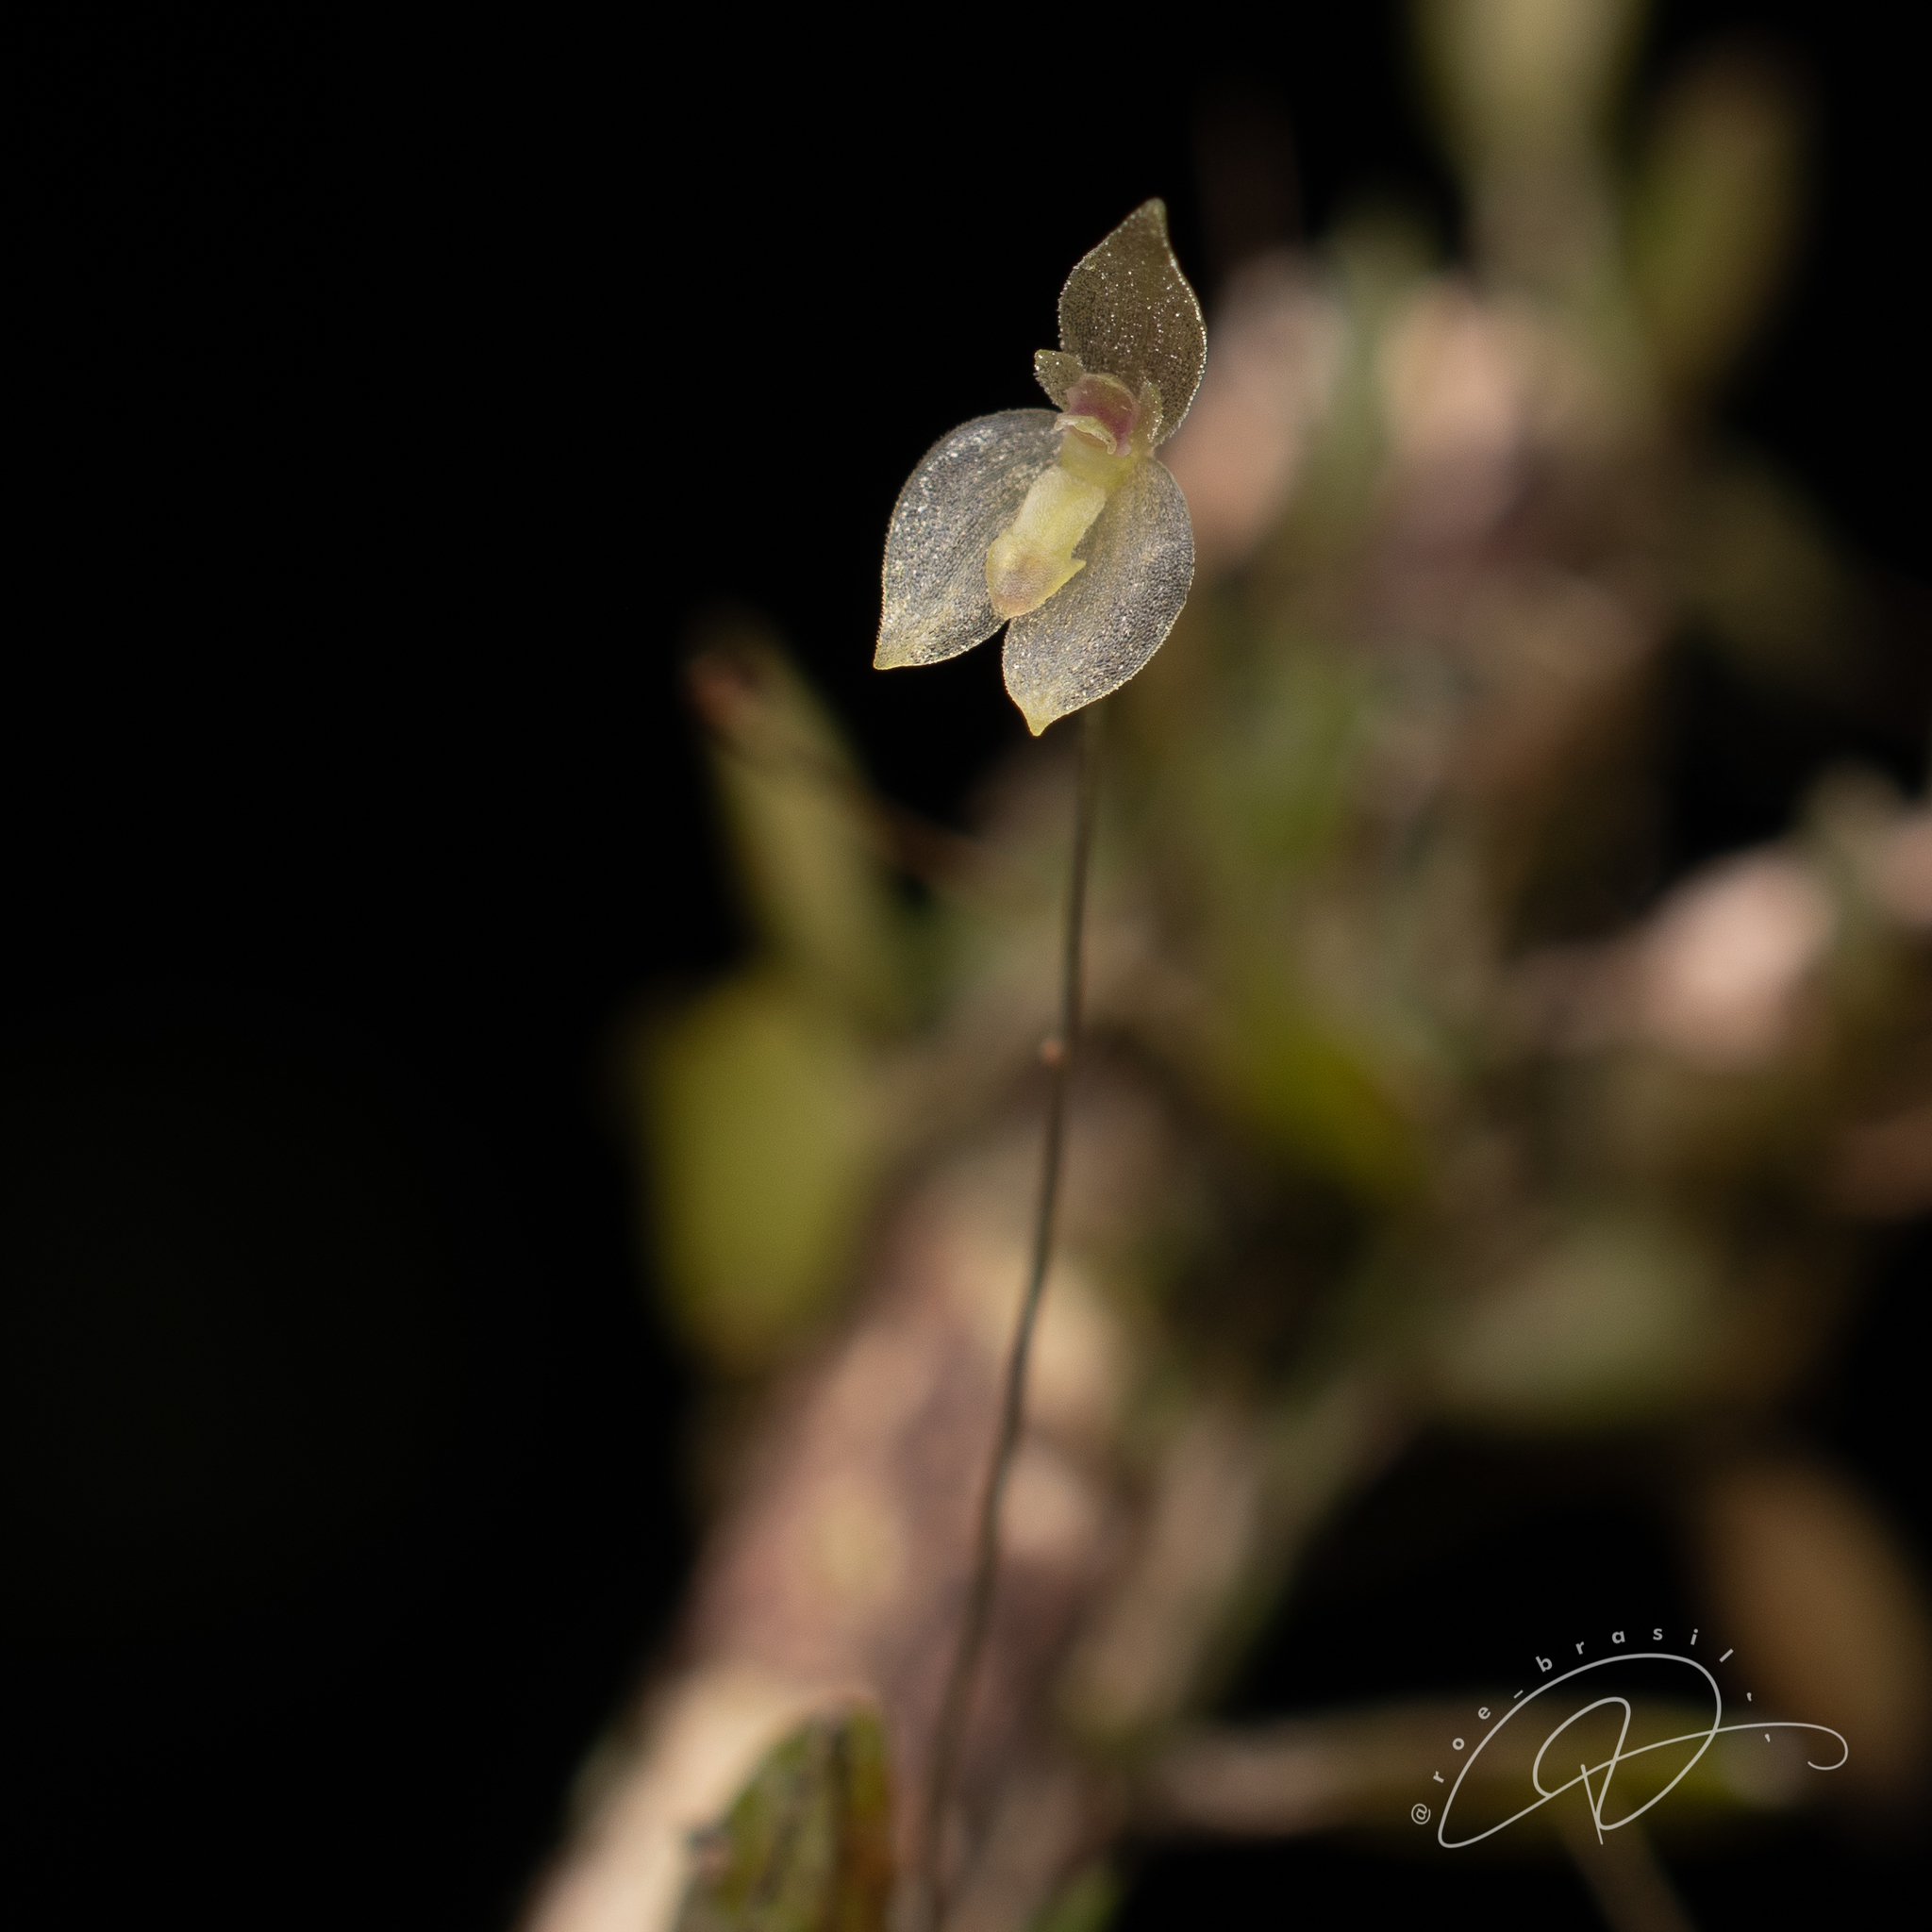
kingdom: Plantae
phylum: Tracheophyta
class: Liliopsida
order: Asparagales
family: Orchidaceae
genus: Barbosella
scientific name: Barbosella miersii
